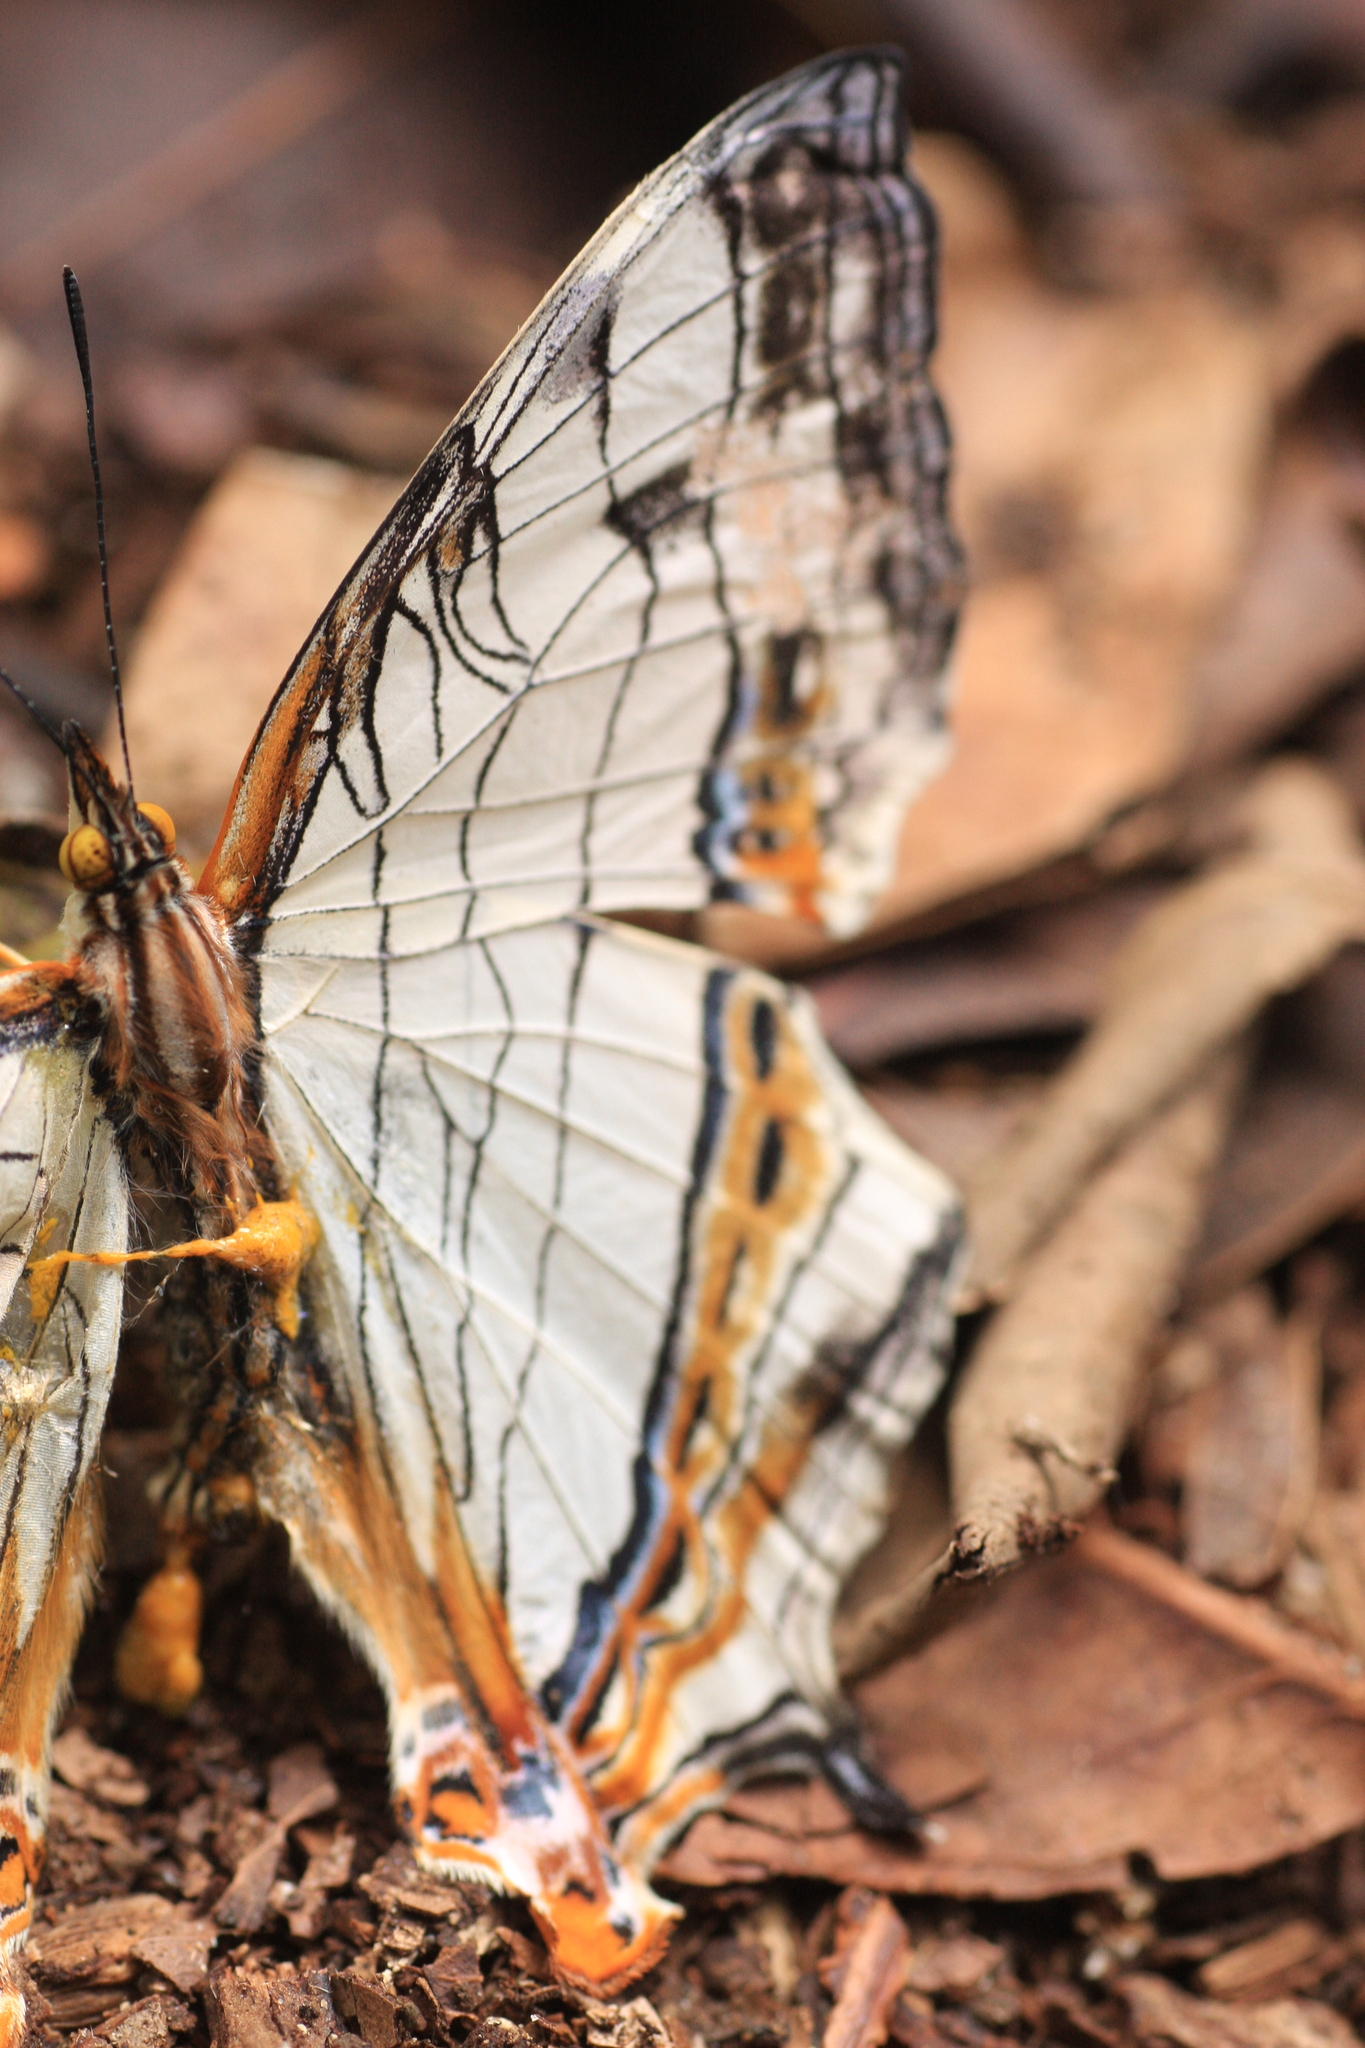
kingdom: Animalia
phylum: Arthropoda
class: Insecta
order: Lepidoptera
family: Nymphalidae
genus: Cyrestis
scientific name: Cyrestis thyodamas
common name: Common mapwing
